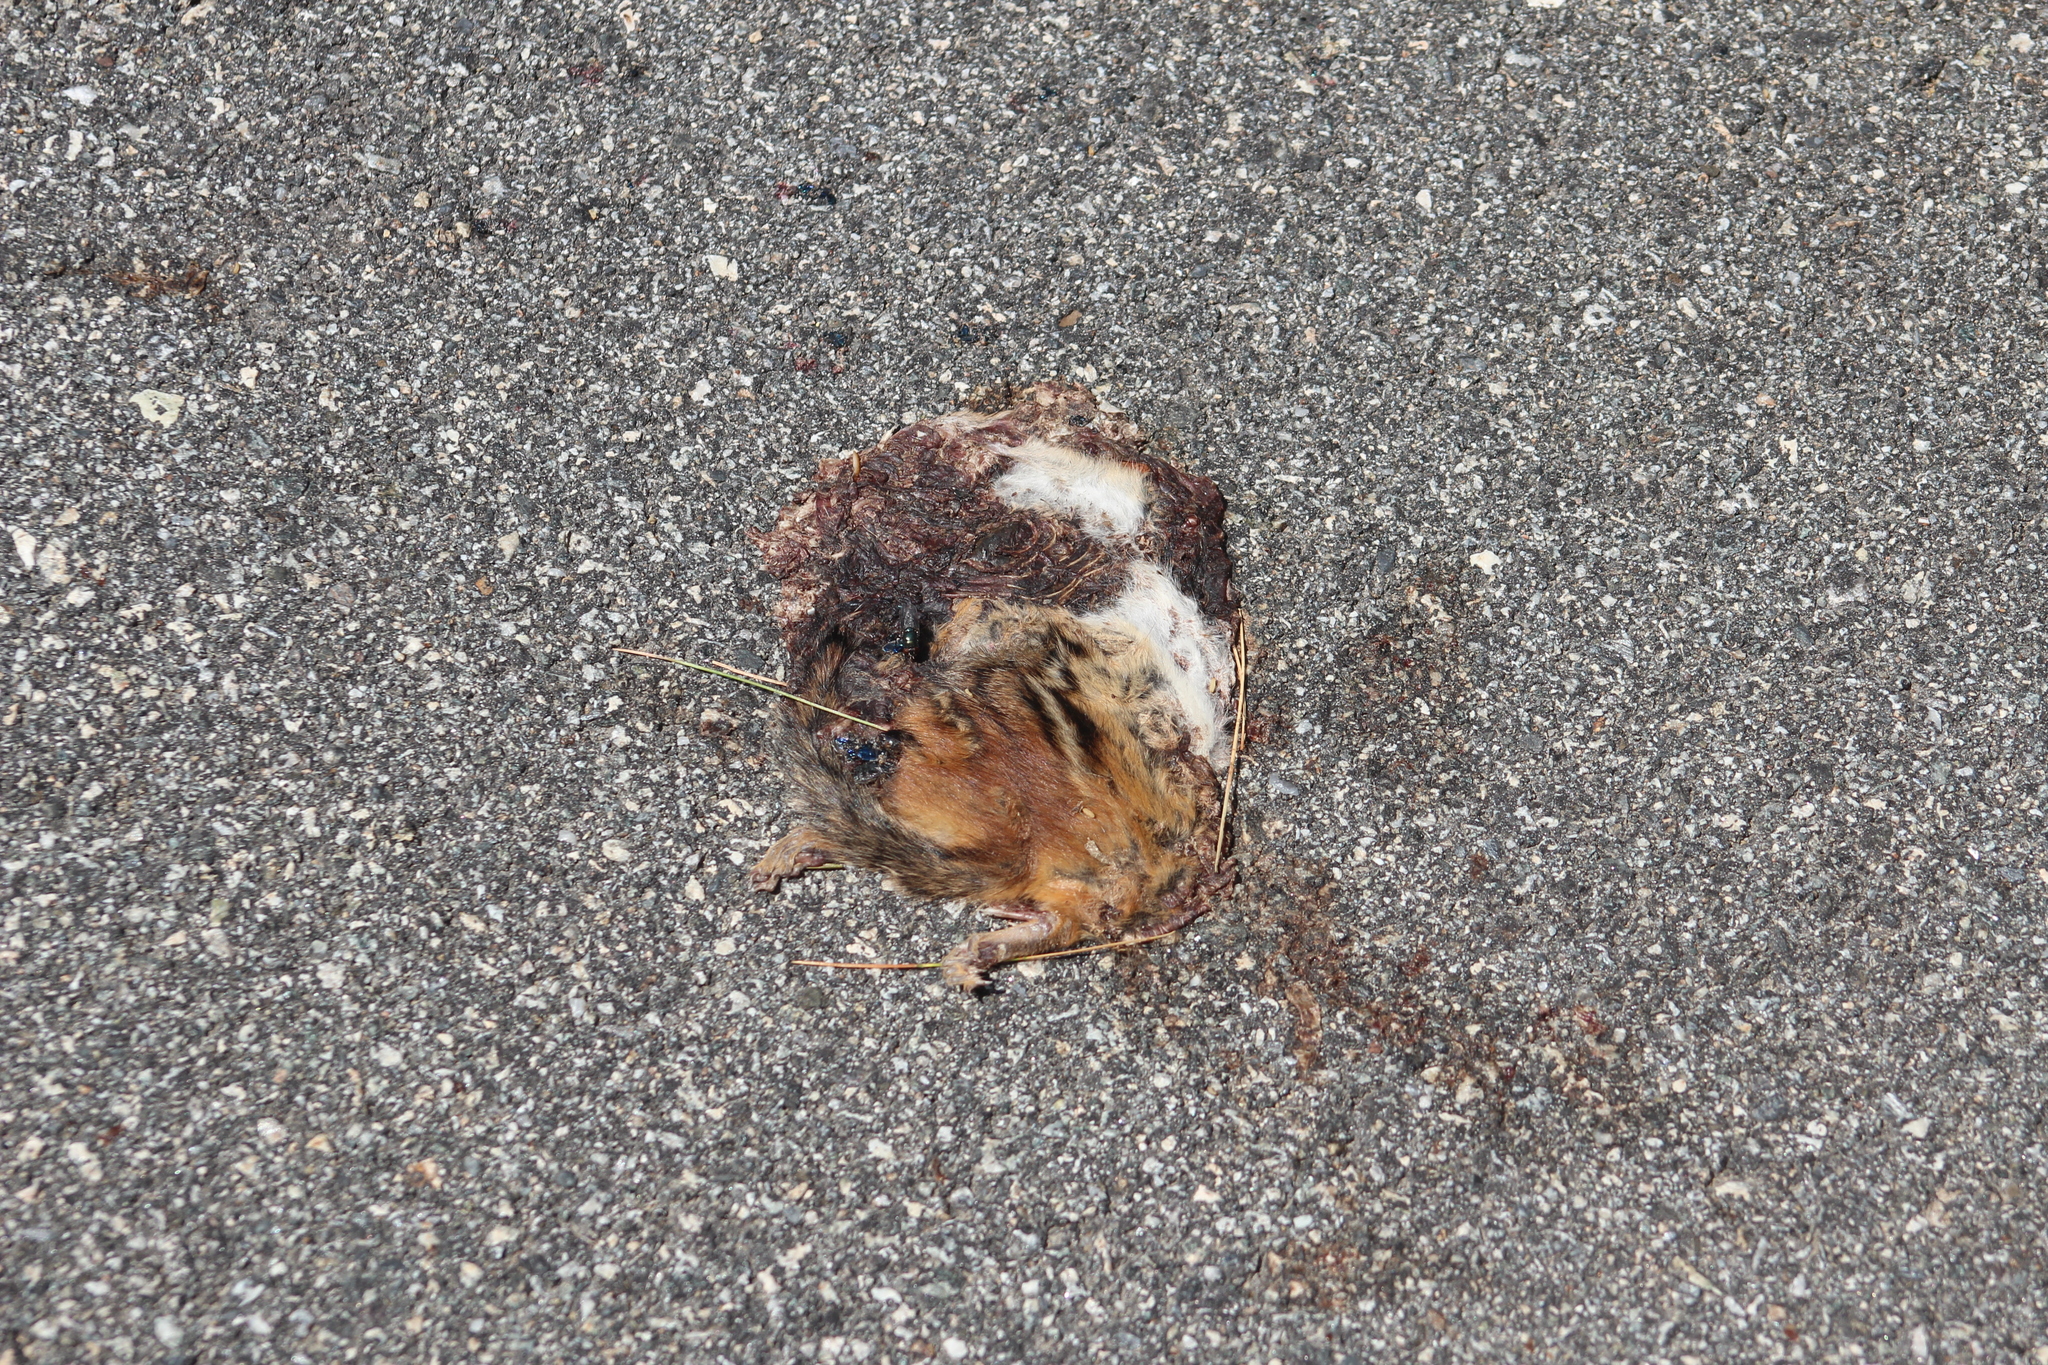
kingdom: Animalia
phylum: Chordata
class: Mammalia
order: Rodentia
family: Sciuridae
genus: Tamias
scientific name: Tamias striatus
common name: Eastern chipmunk
